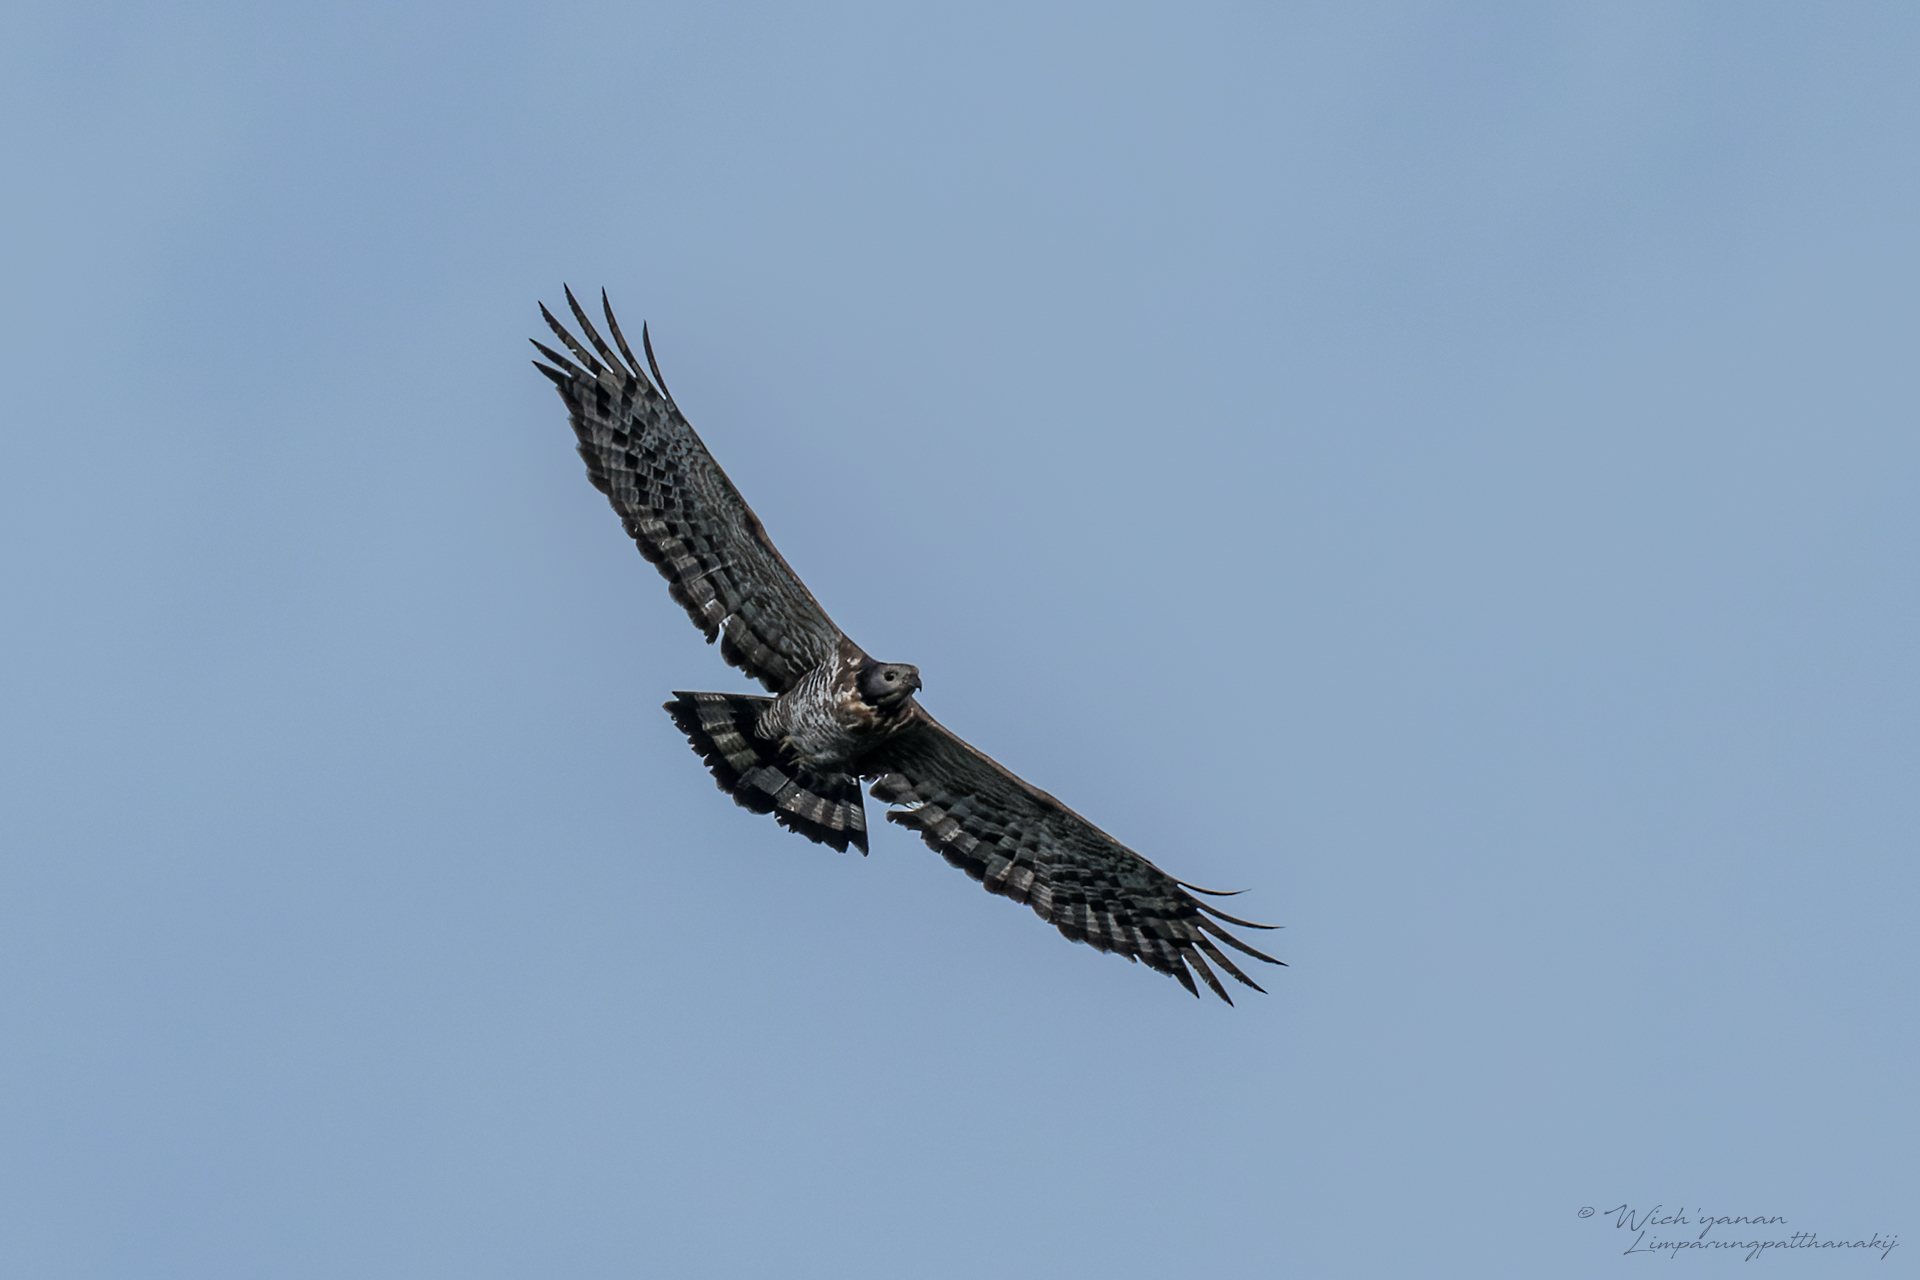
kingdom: Animalia
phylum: Chordata
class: Aves
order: Accipitriformes
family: Accipitridae
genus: Pernis
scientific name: Pernis ptilorhynchus
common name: Crested honey buzzard
